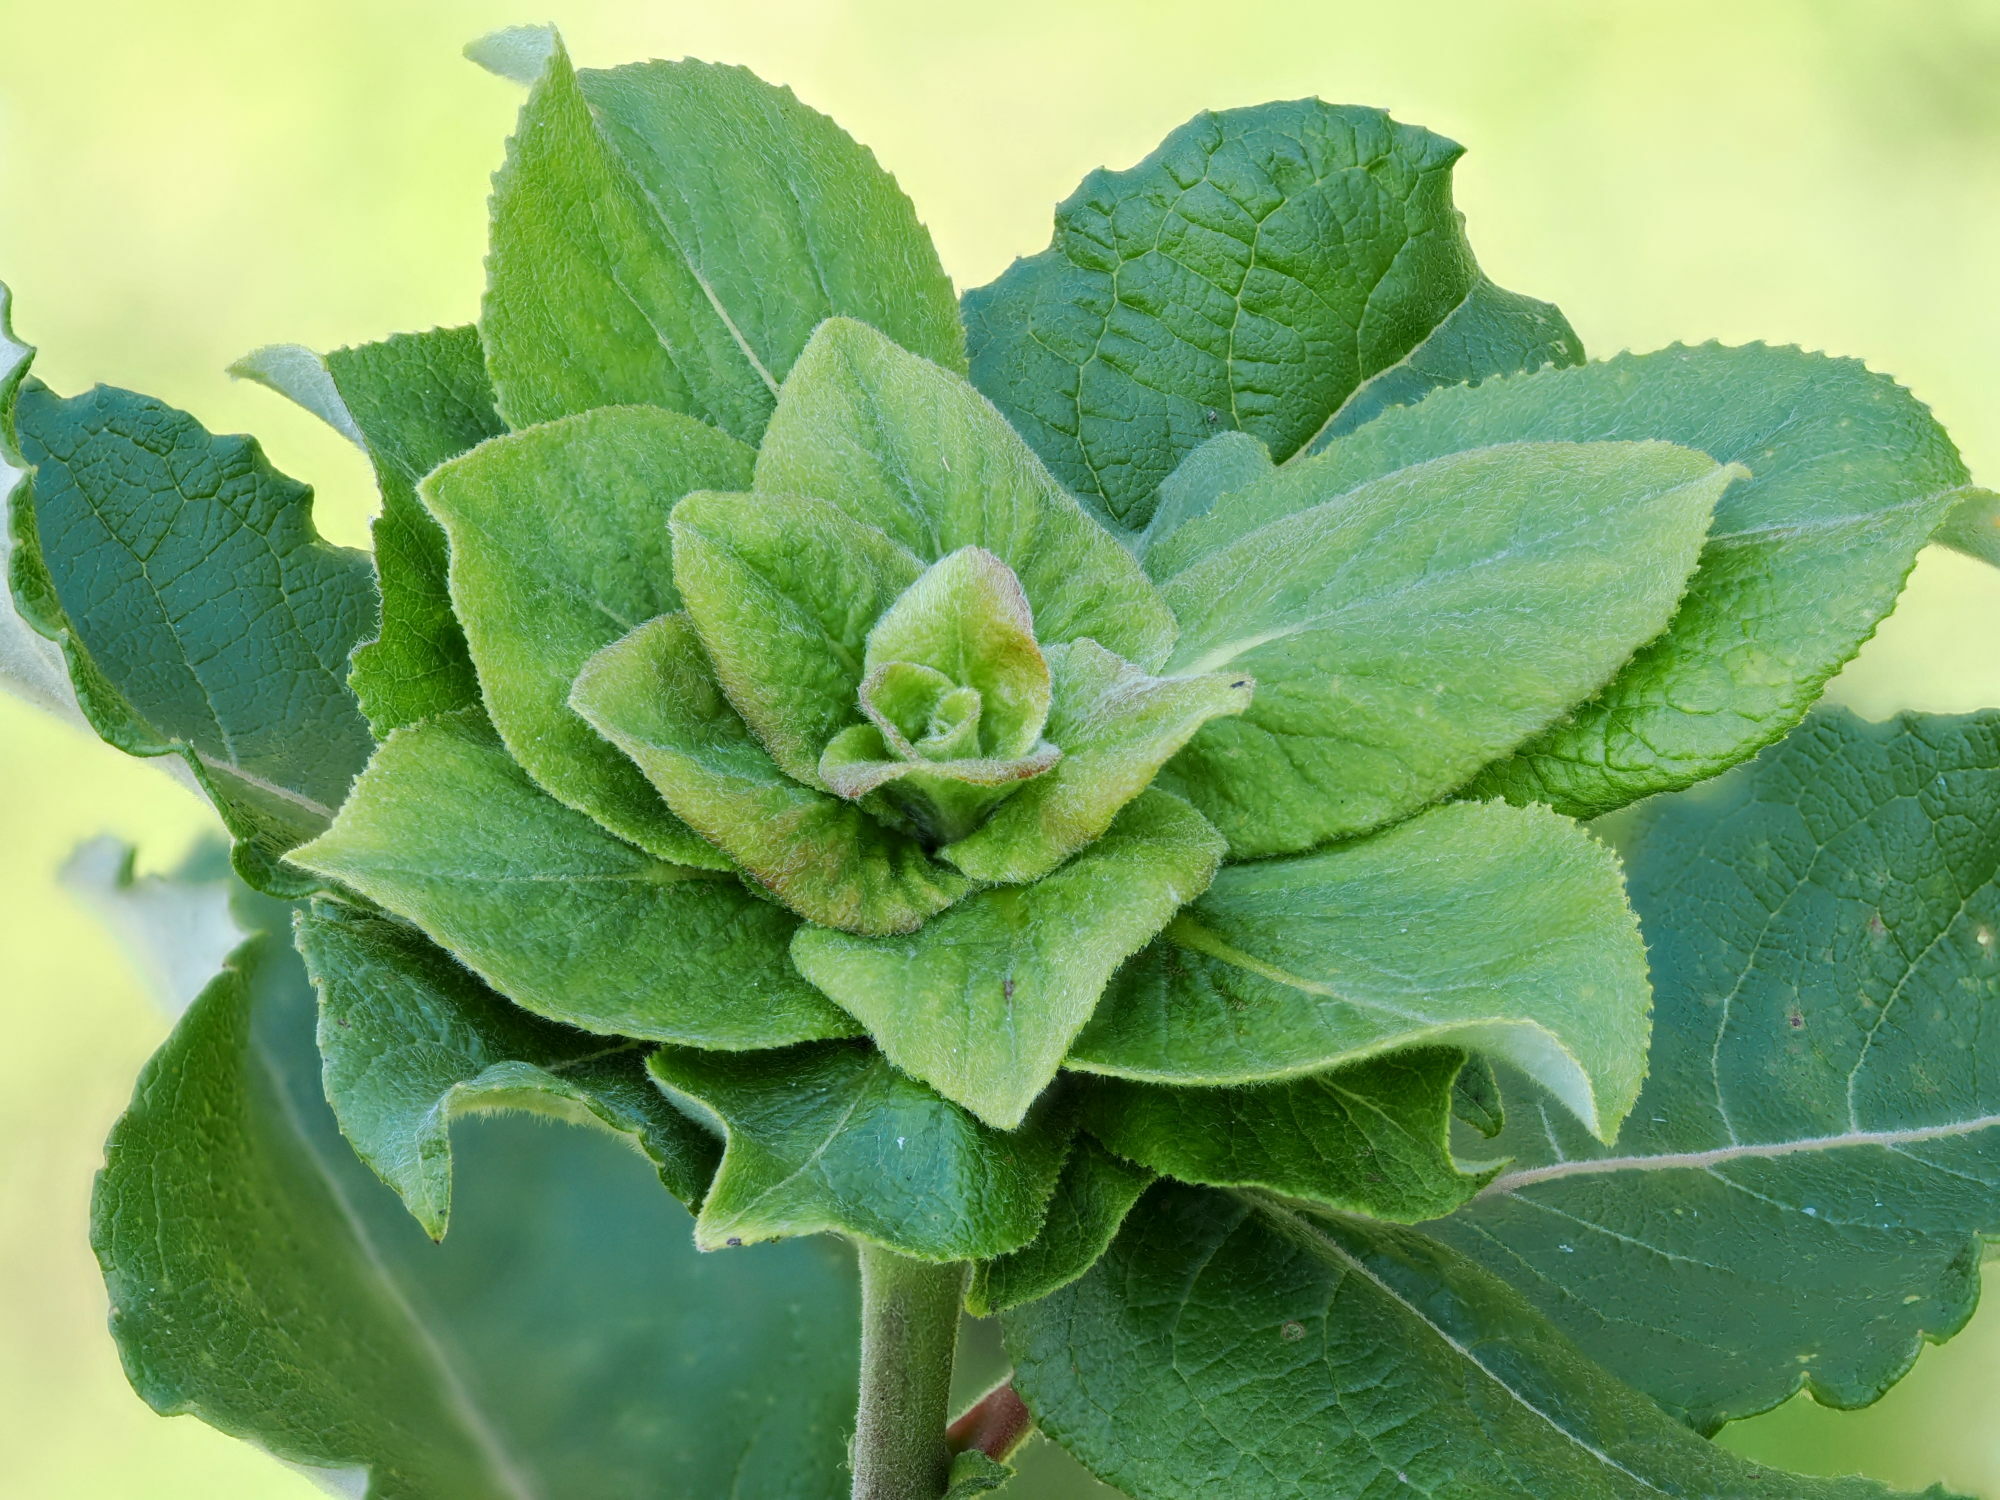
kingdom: Animalia
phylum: Arthropoda
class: Insecta
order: Diptera
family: Cecidomyiidae
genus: Rabdophaga
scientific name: Rabdophaga rosaria
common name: Willow rose gall midge
